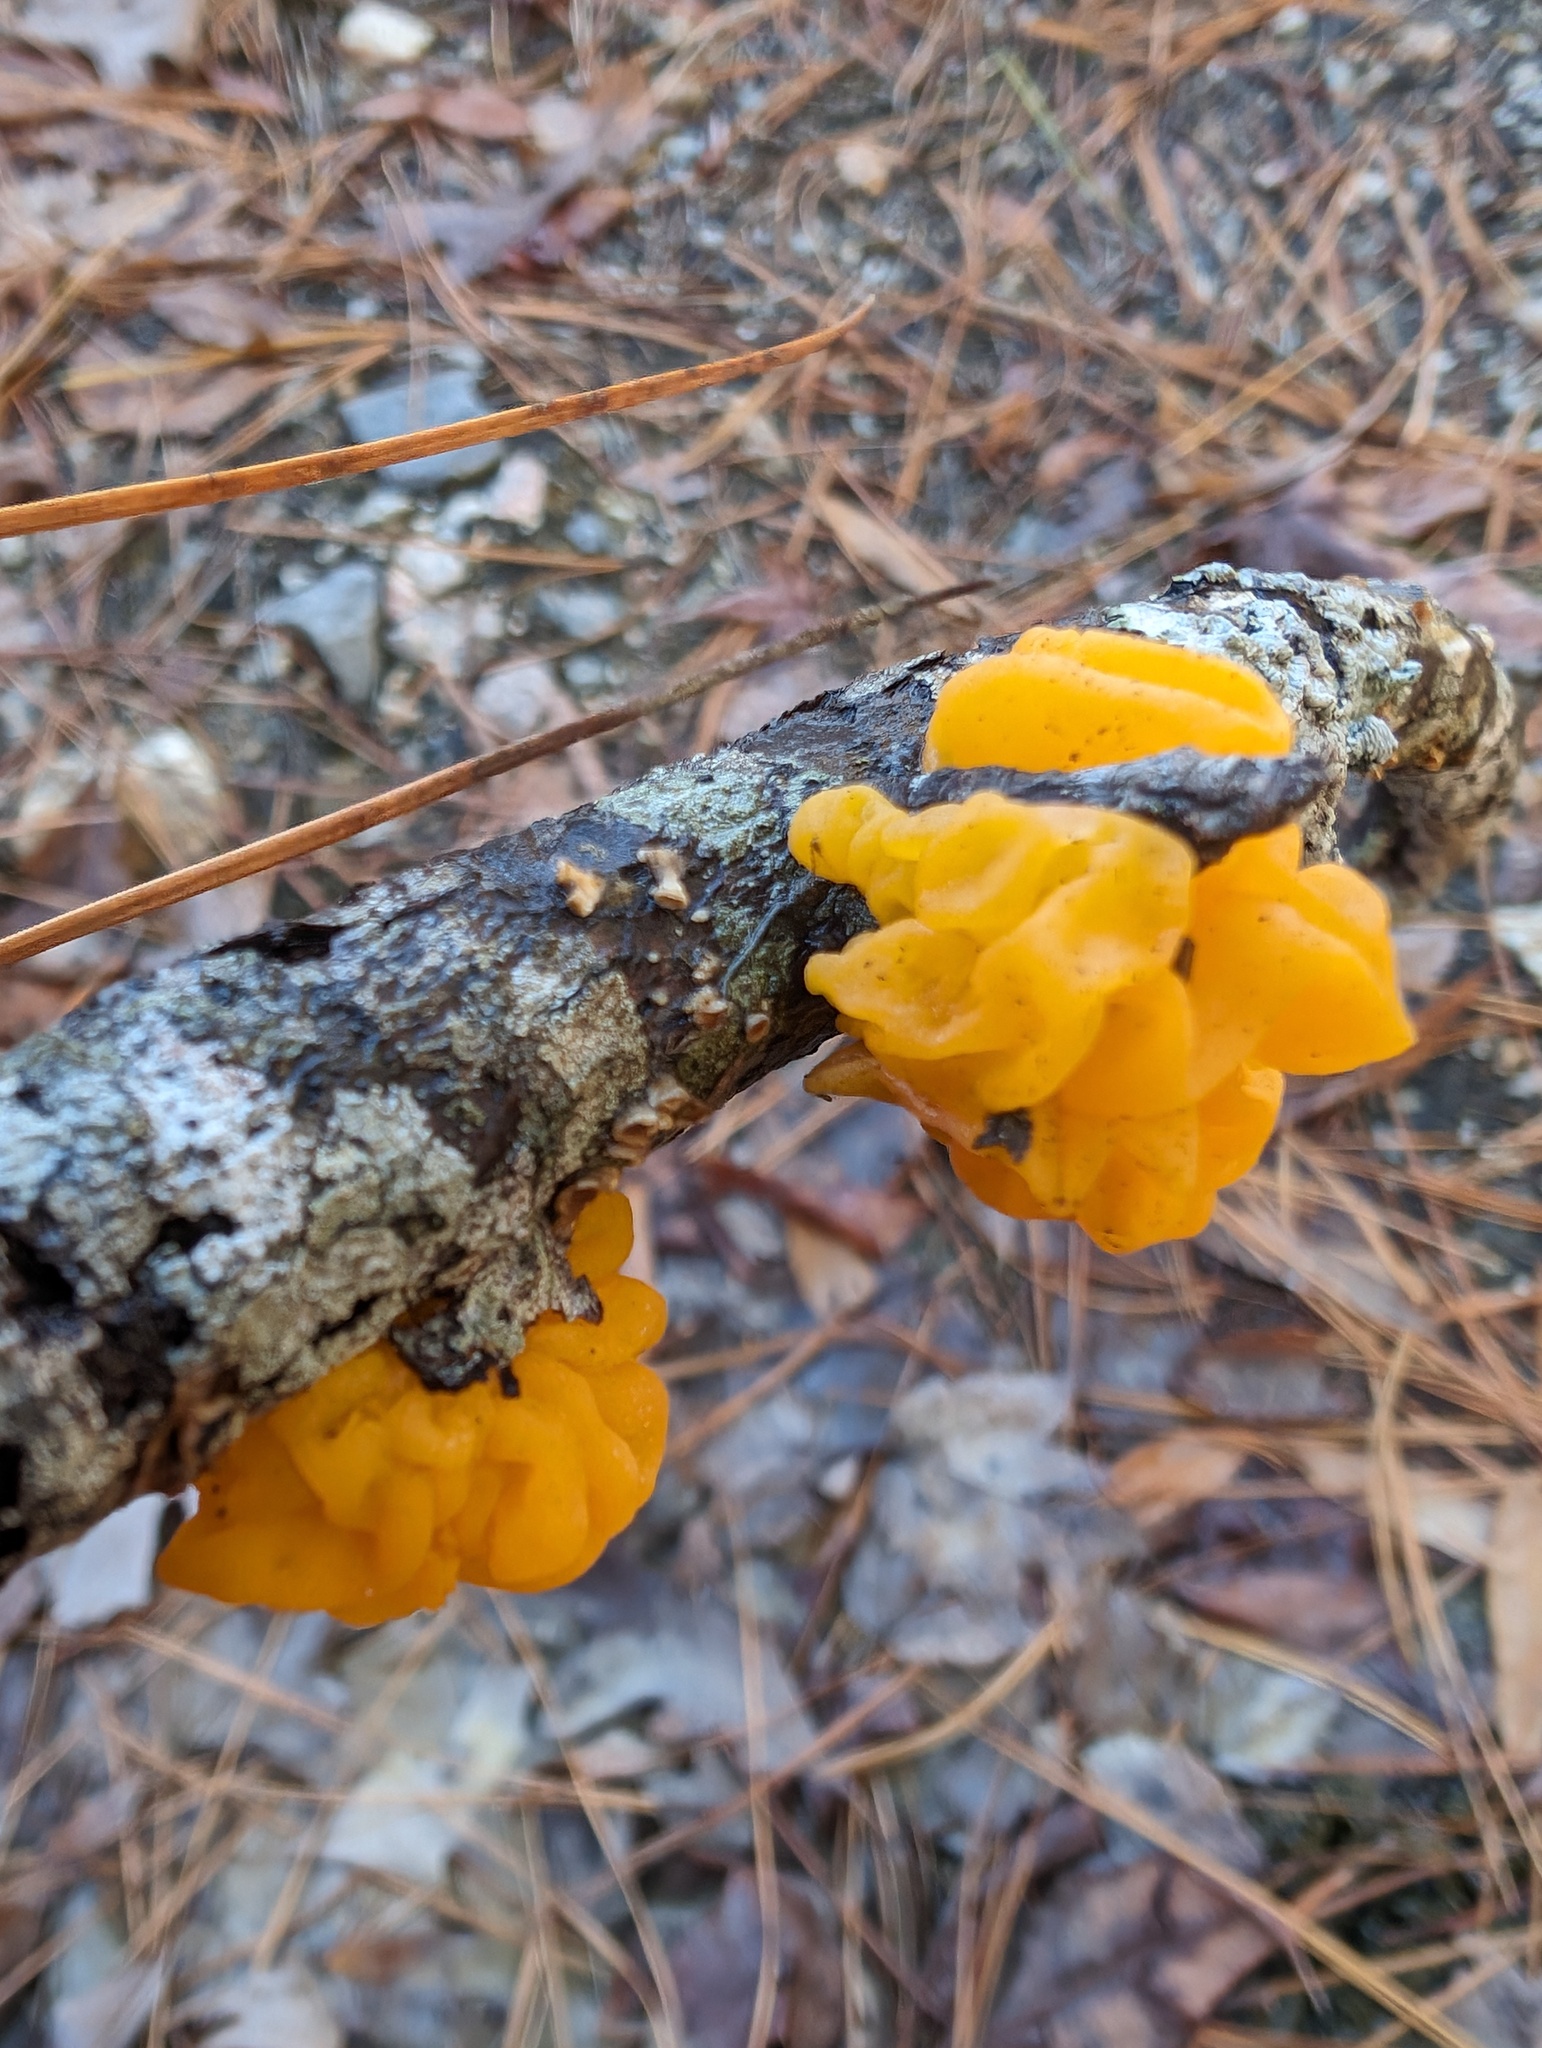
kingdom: Fungi
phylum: Basidiomycota
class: Tremellomycetes
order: Tremellales
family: Tremellaceae
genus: Tremella
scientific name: Tremella mesenterica
